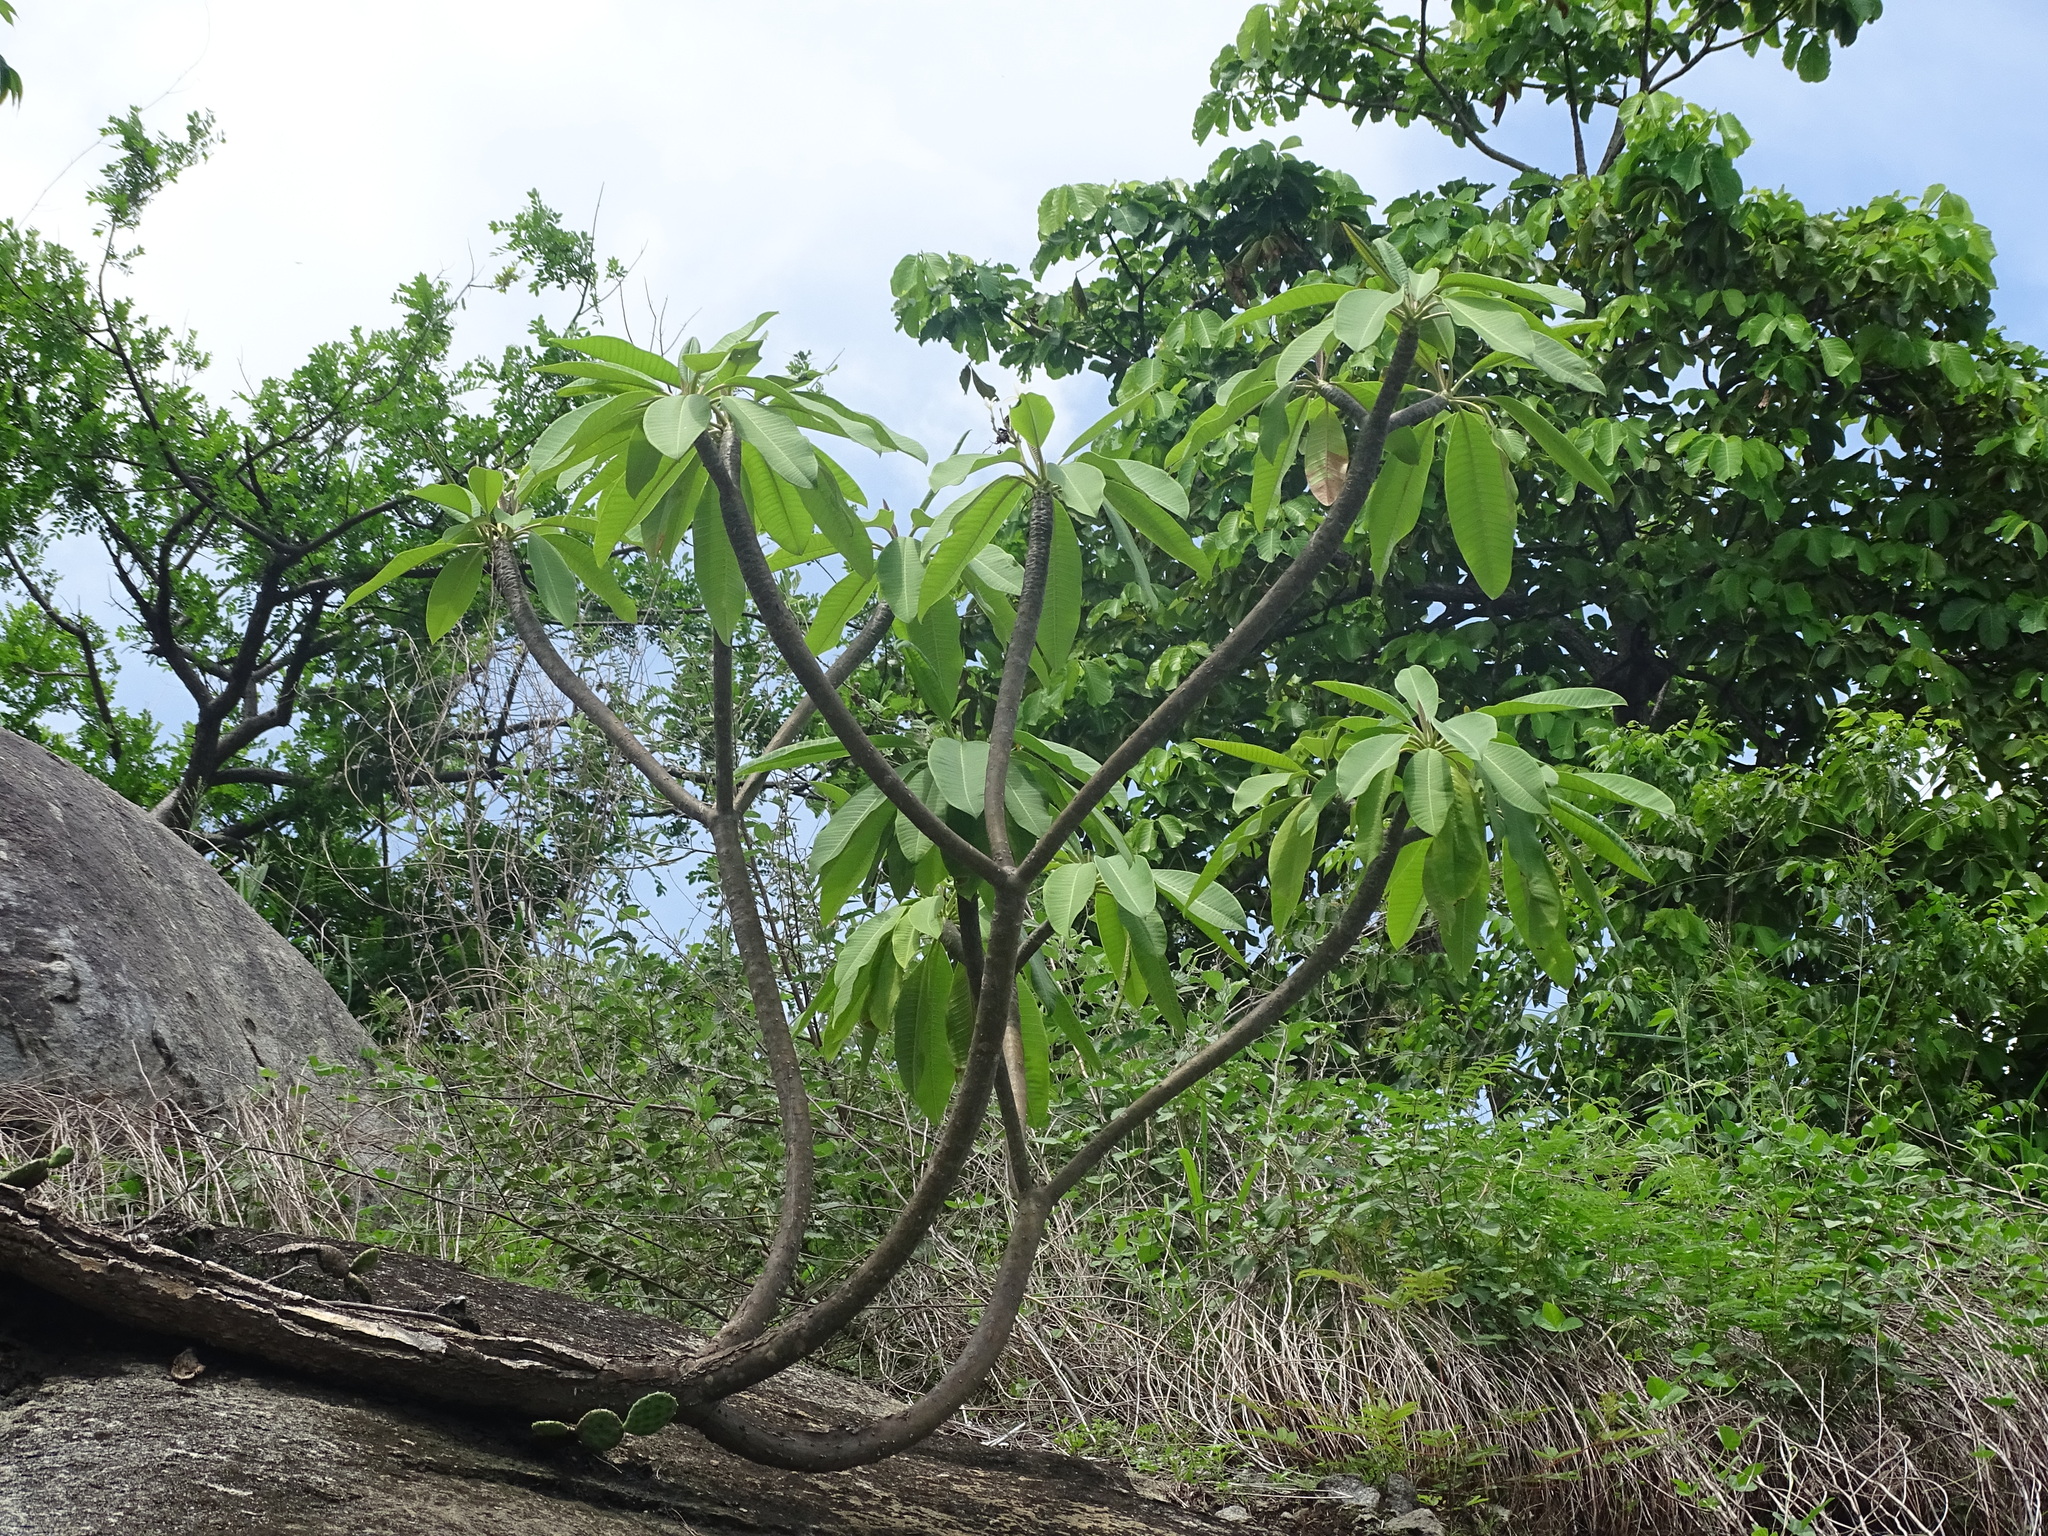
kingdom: Plantae
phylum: Tracheophyta
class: Magnoliopsida
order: Gentianales
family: Apocynaceae
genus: Plumeria
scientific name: Plumeria rubra
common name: Pagoda-tree
